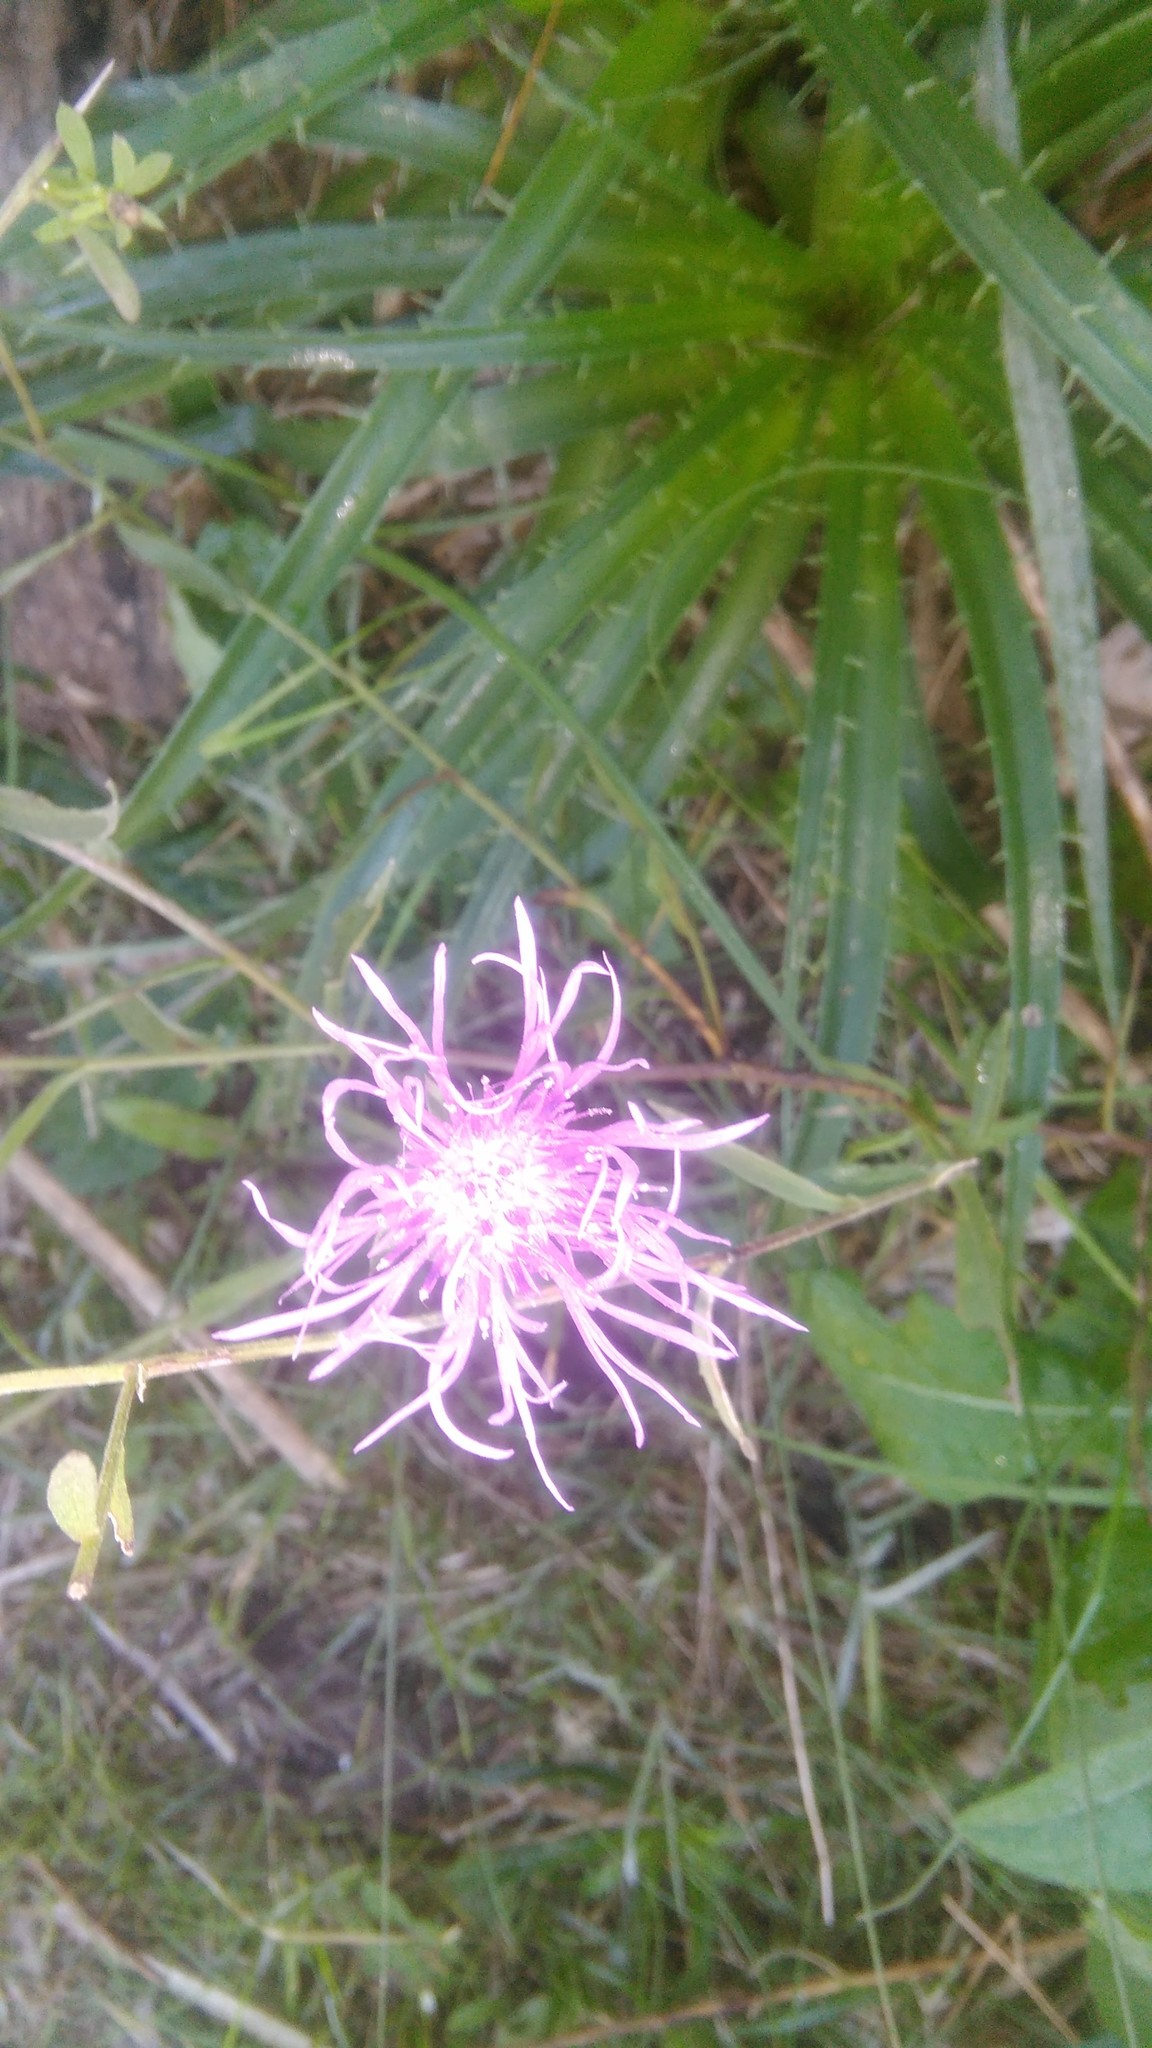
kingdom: Plantae
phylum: Tracheophyta
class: Magnoliopsida
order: Asterales
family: Asteraceae
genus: Centaurea
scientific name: Centaurea jacea
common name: Brown knapweed
